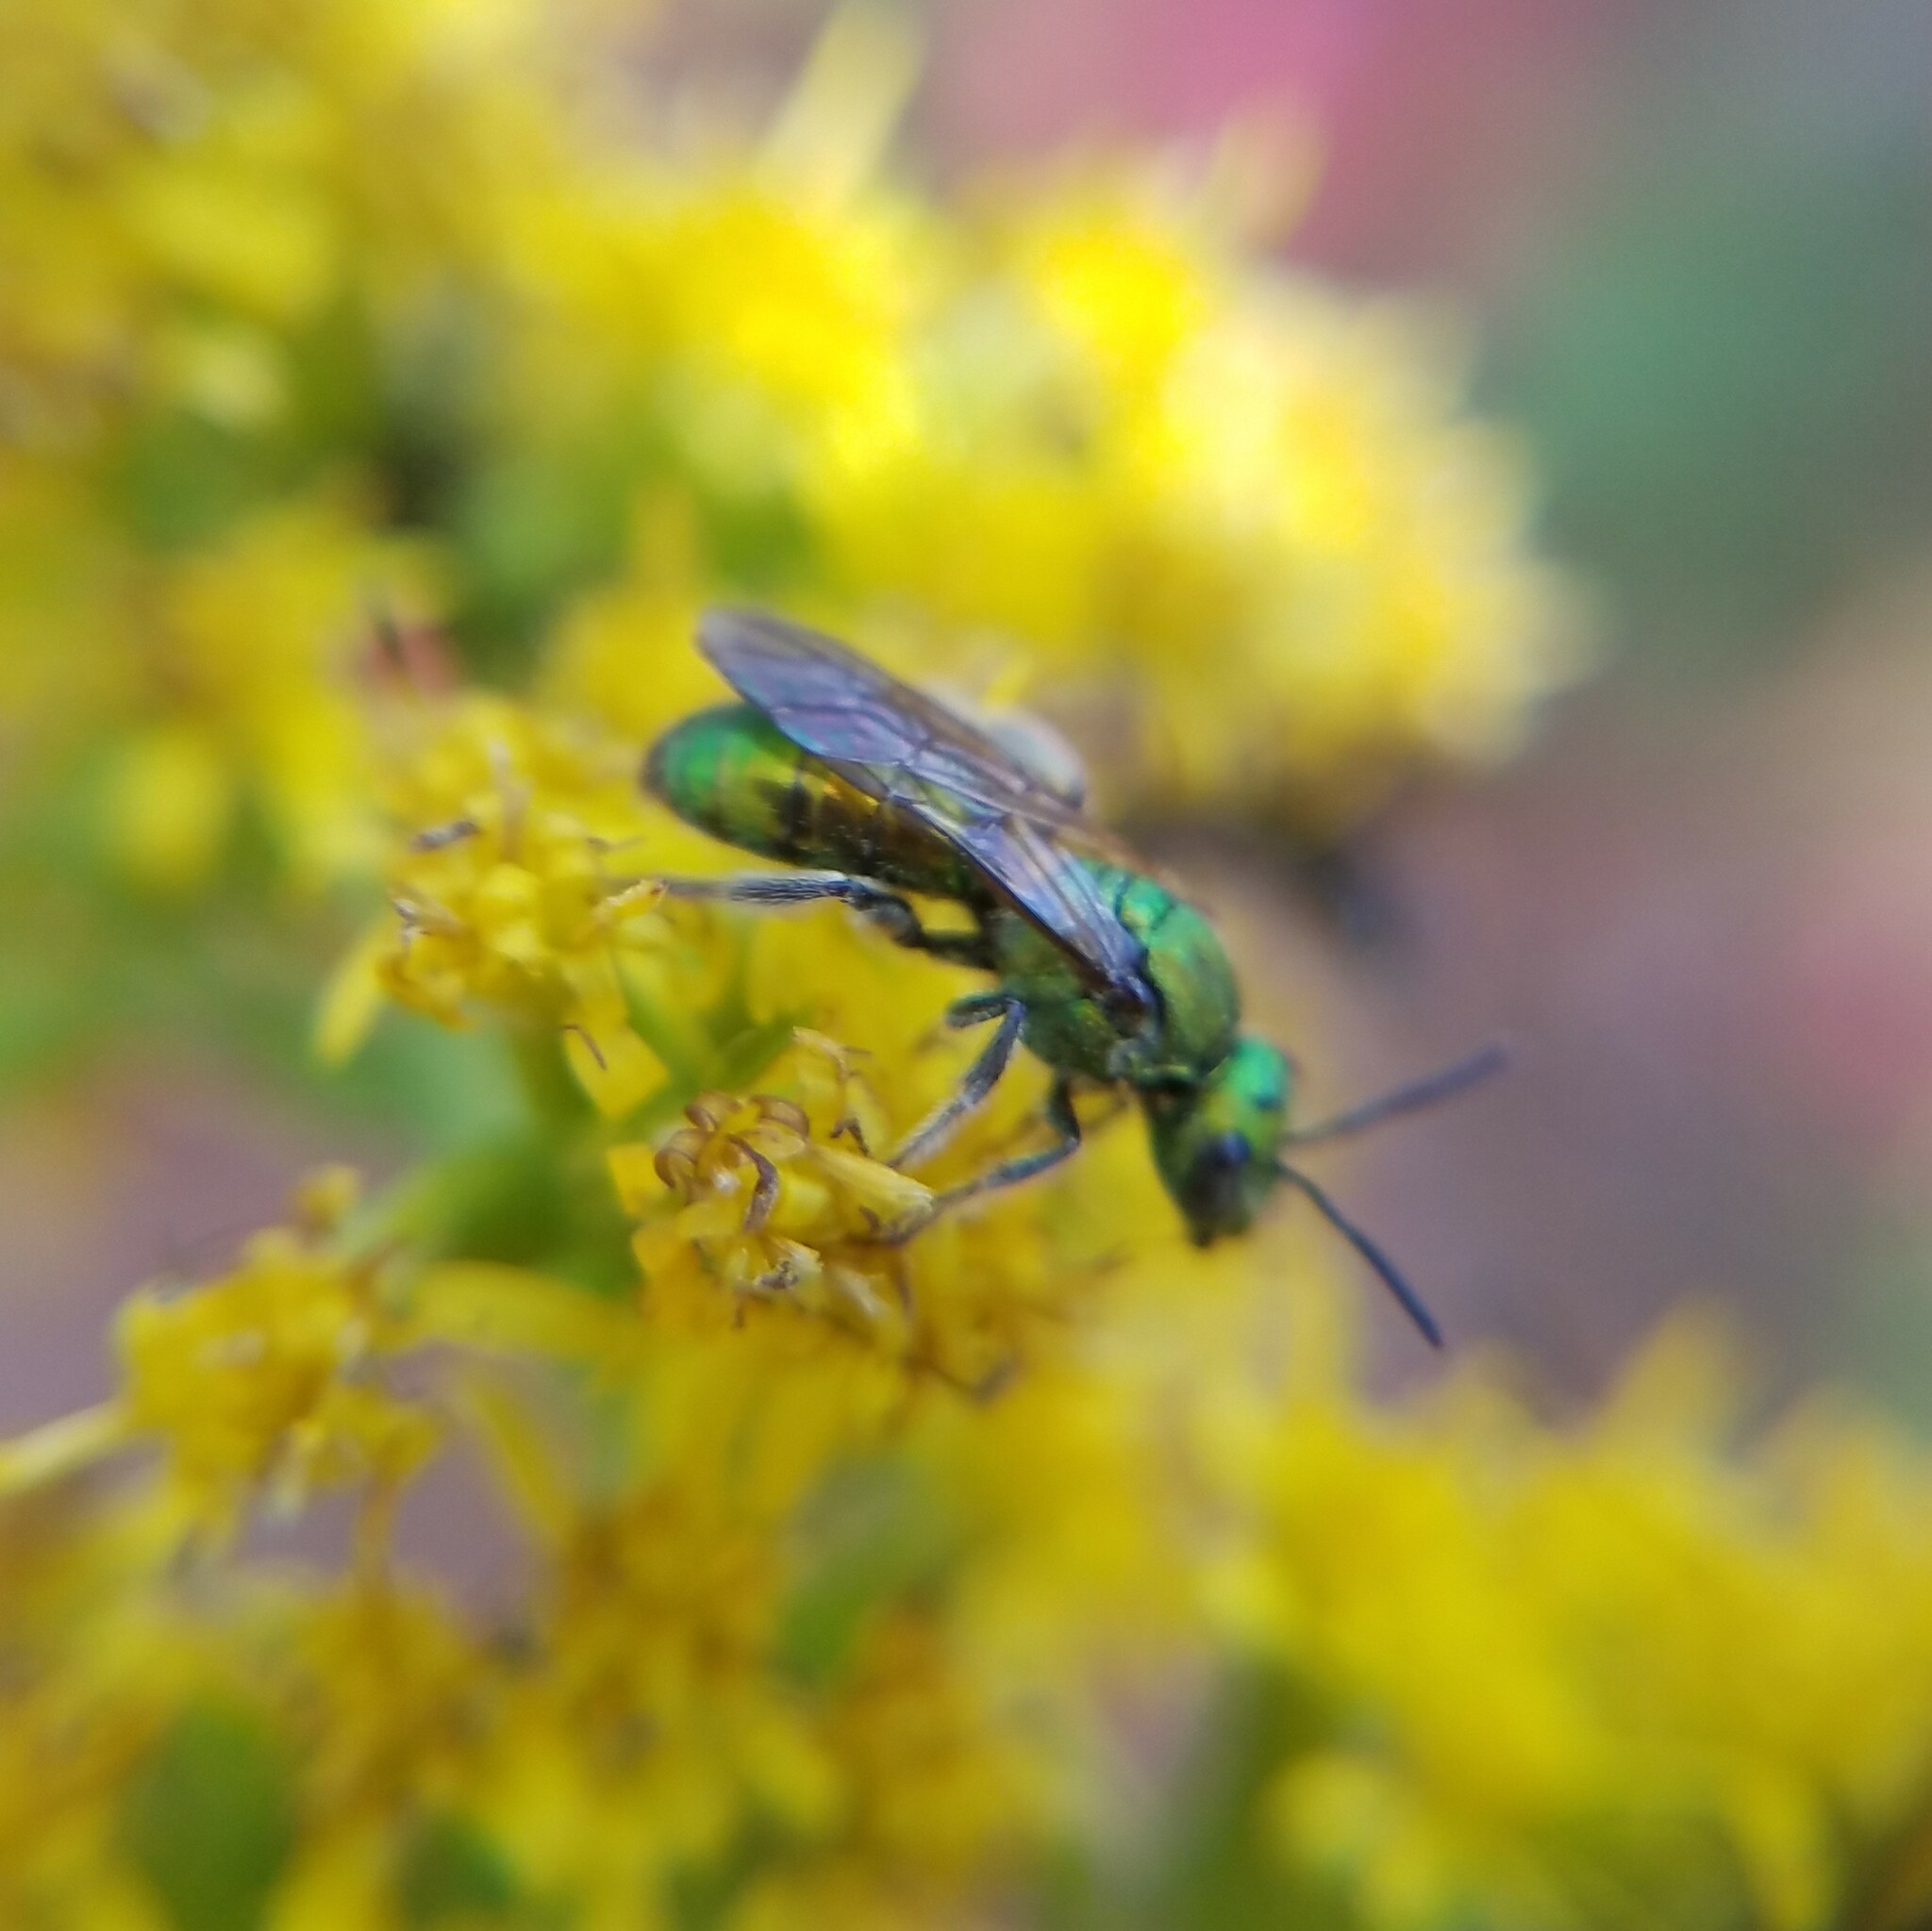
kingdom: Animalia
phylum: Arthropoda
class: Insecta
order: Hymenoptera
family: Halictidae
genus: Augochlora
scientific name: Augochlora pura
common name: Pure green sweat bee
